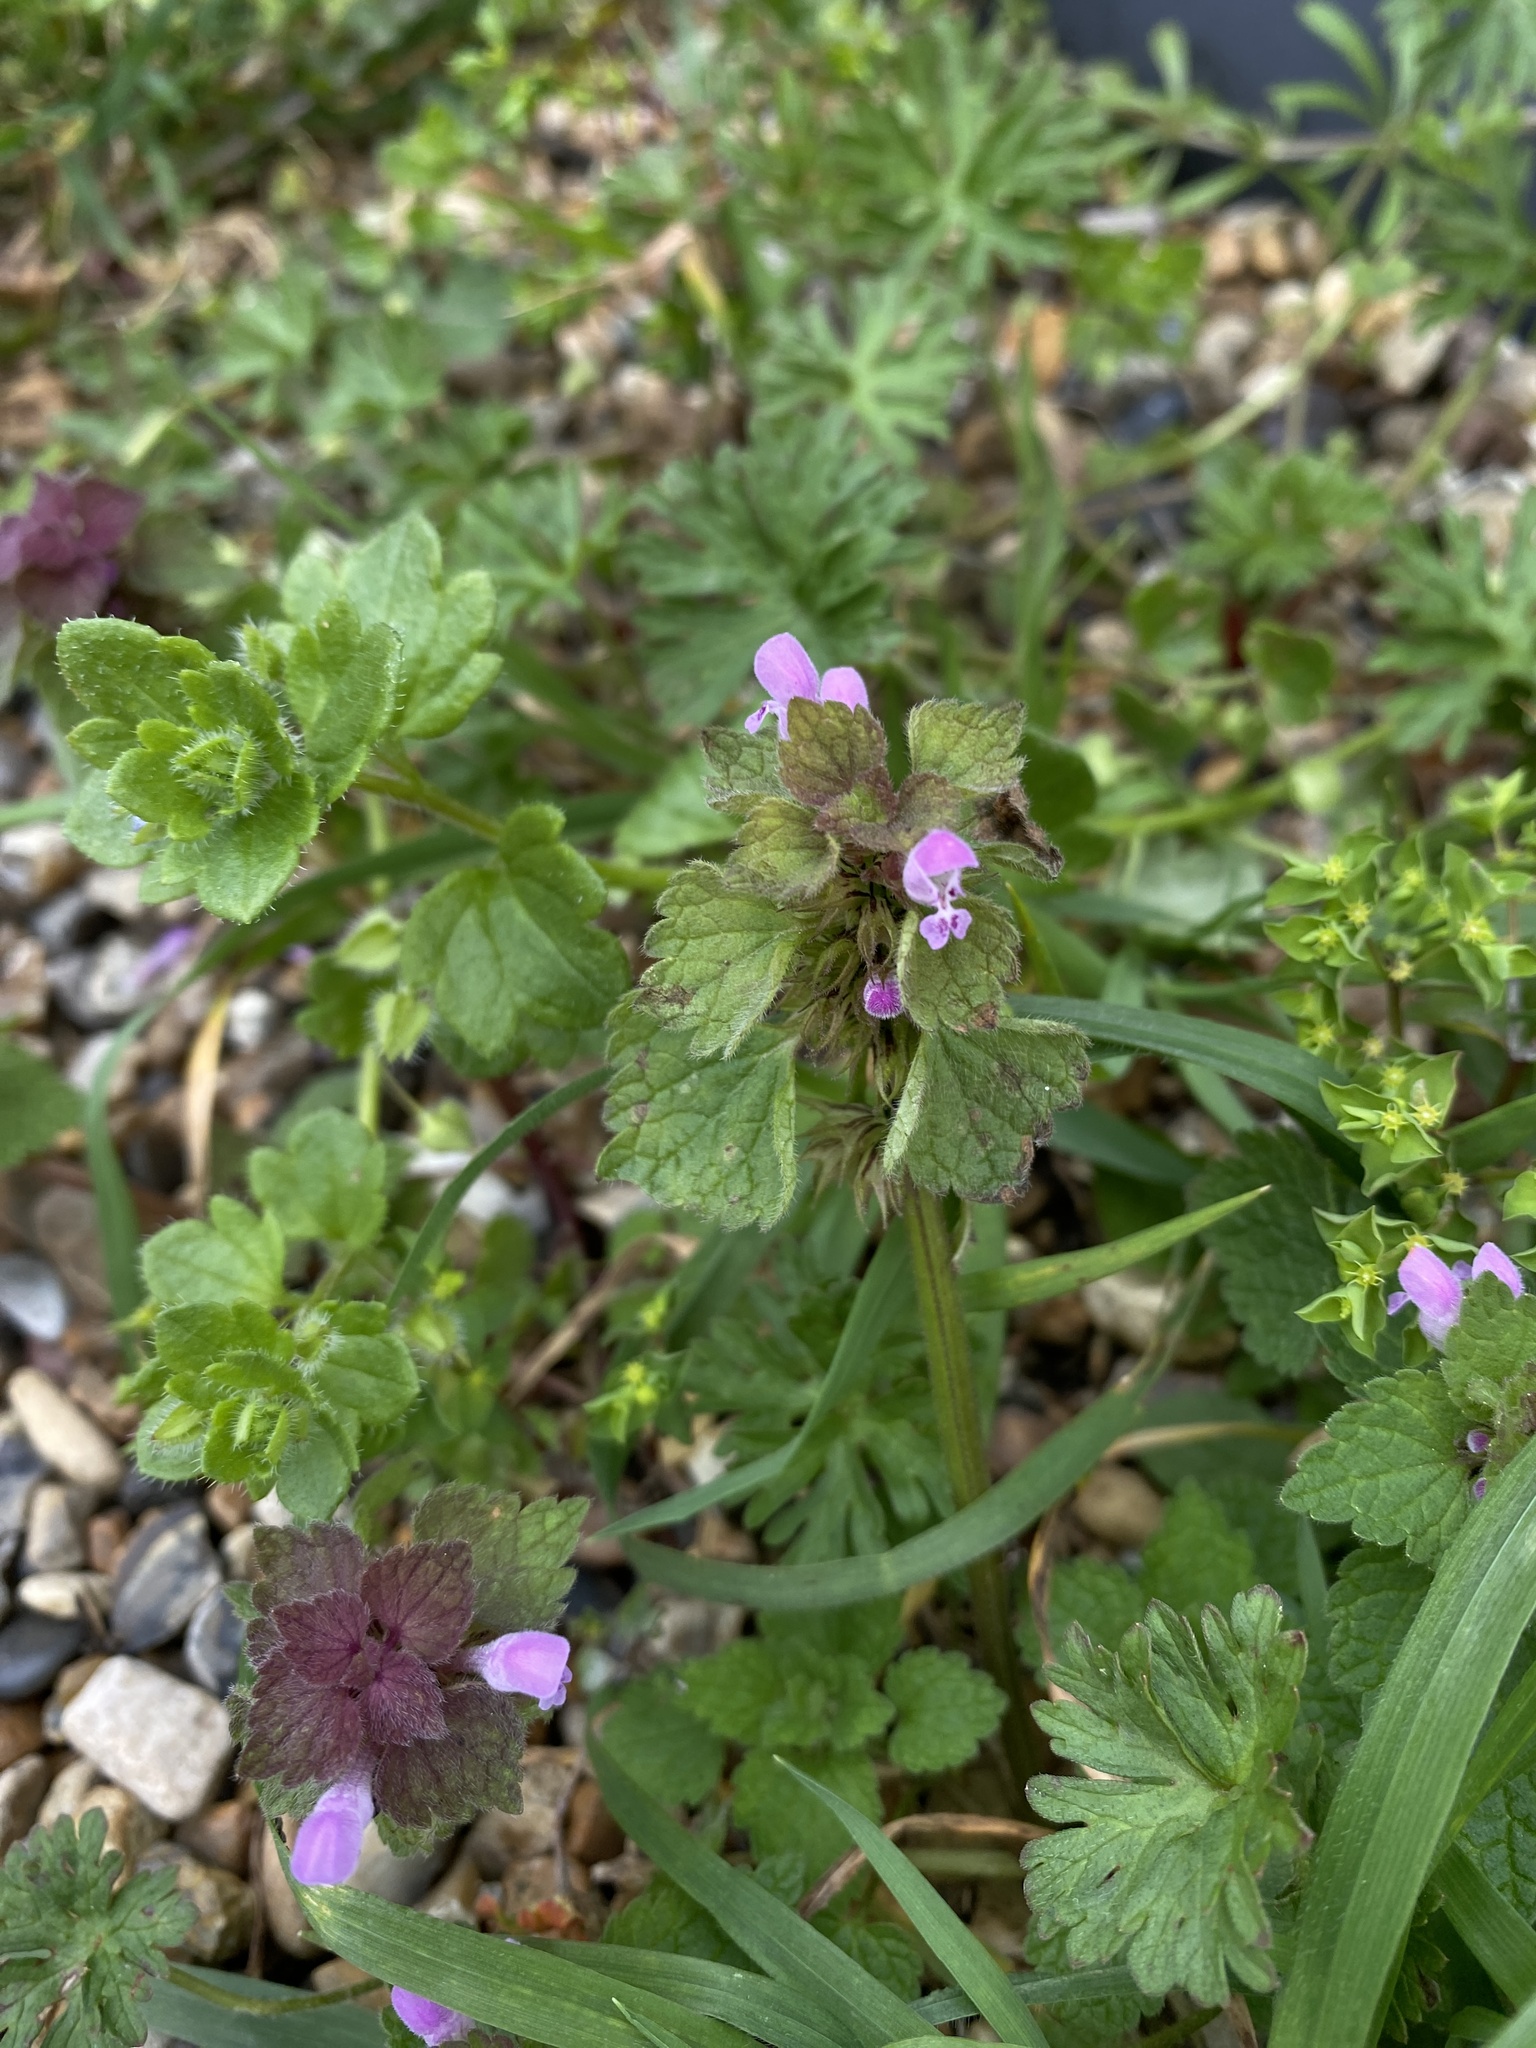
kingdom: Plantae
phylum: Tracheophyta
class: Magnoliopsida
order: Lamiales
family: Lamiaceae
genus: Lamium
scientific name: Lamium purpureum
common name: Red dead-nettle
